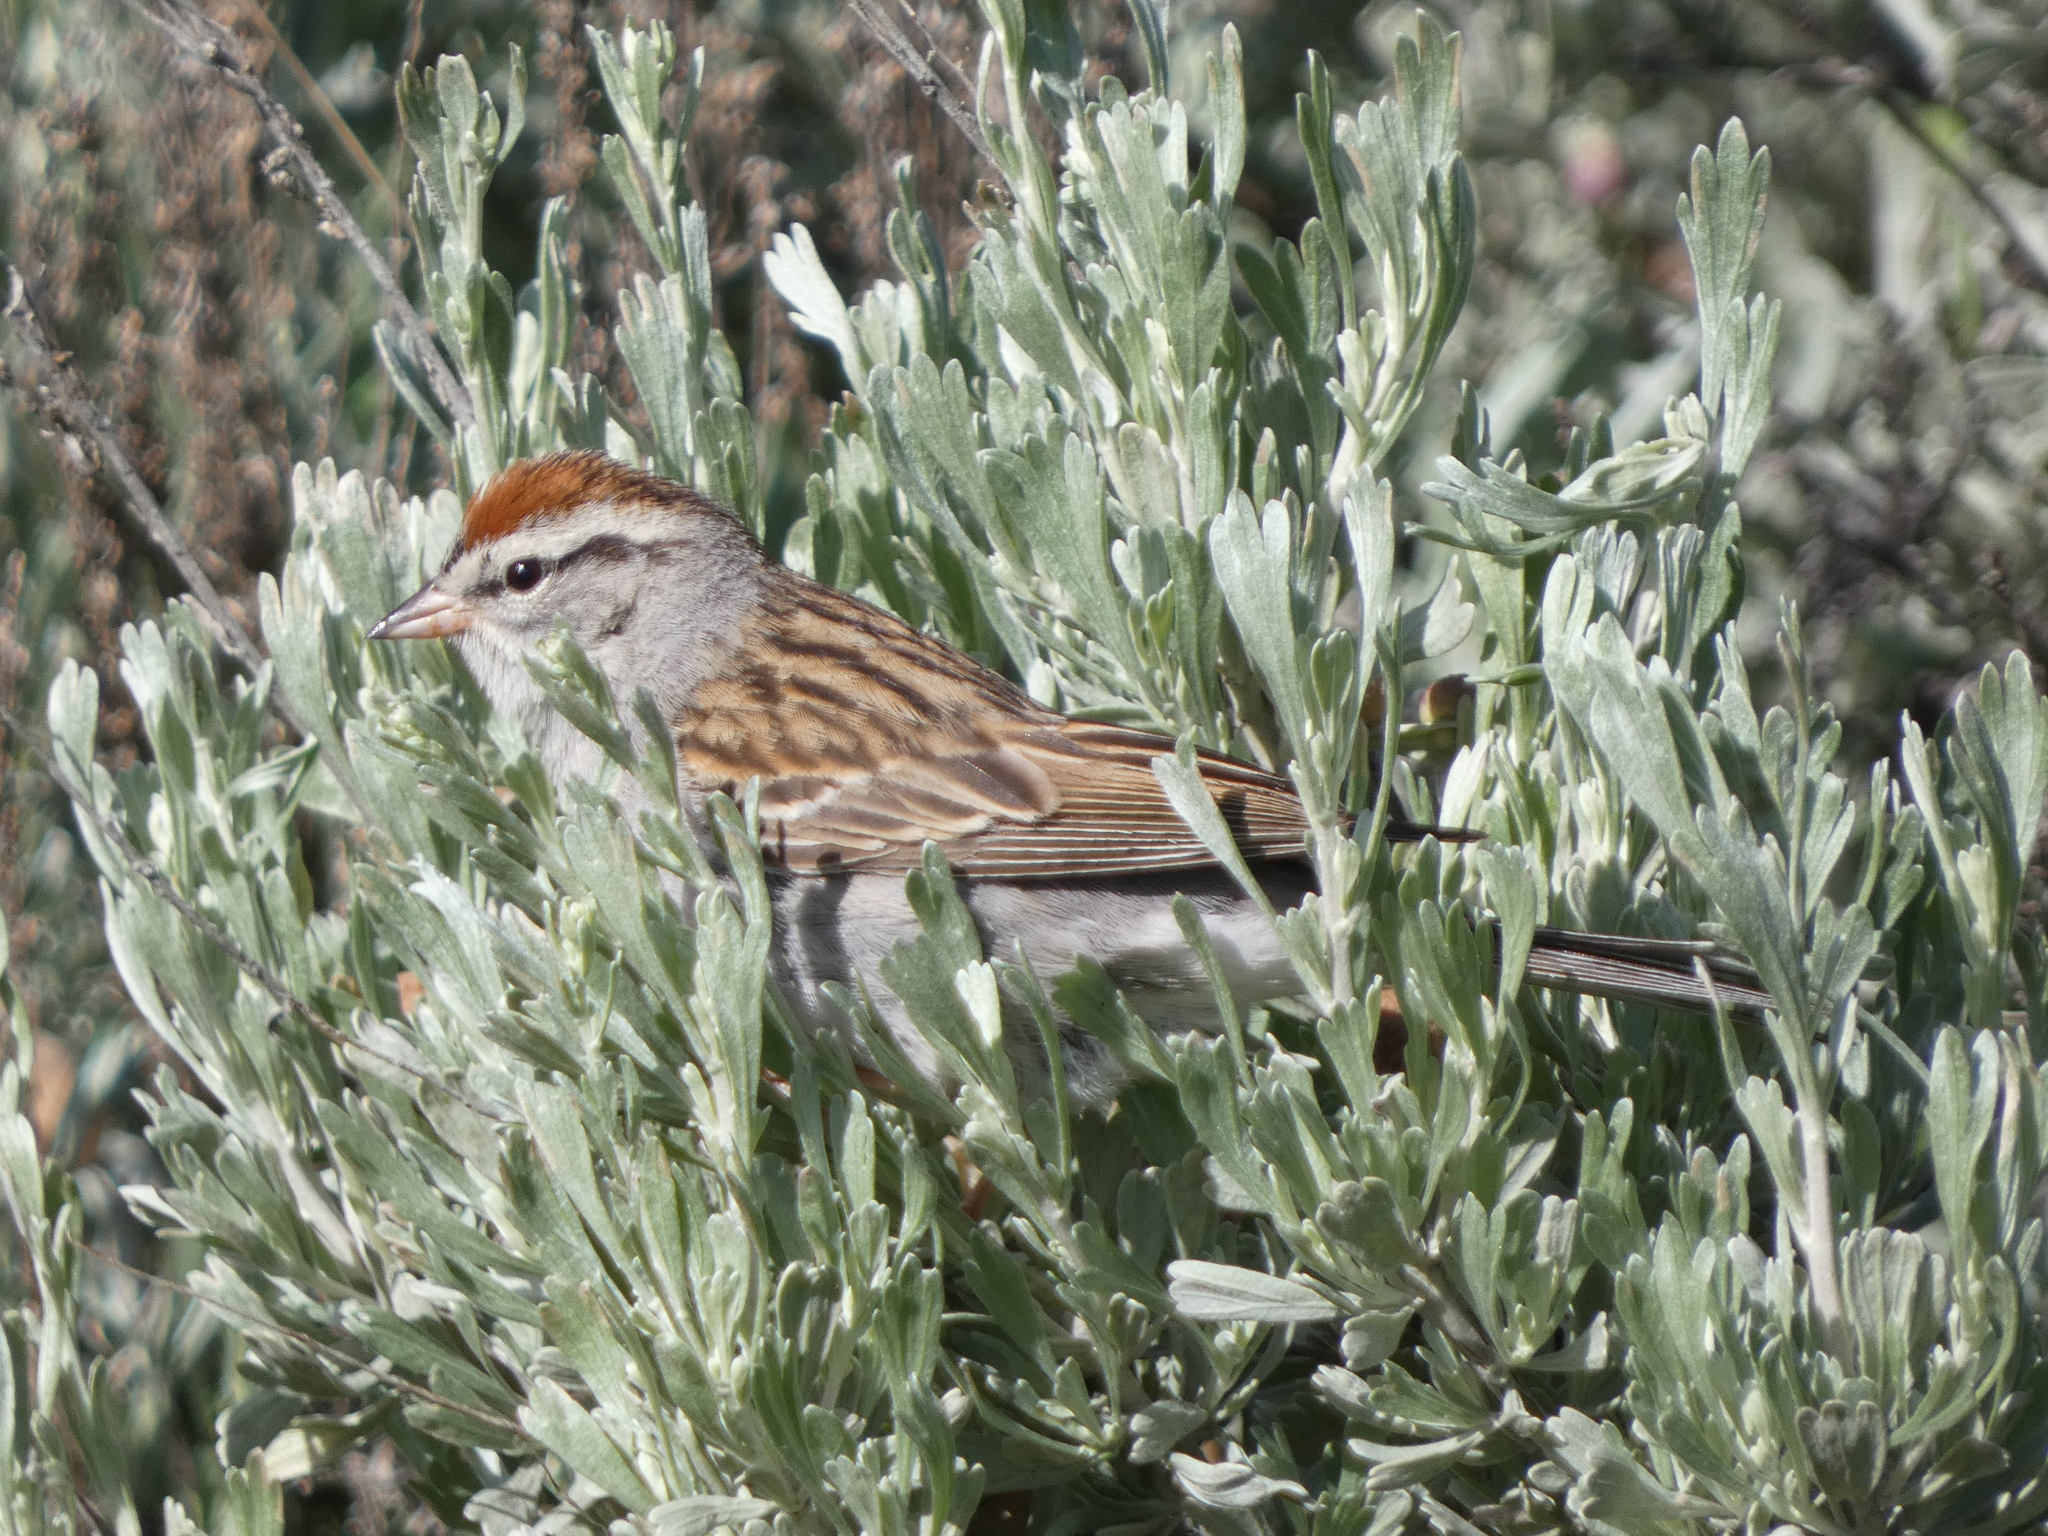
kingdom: Animalia
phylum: Chordata
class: Aves
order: Passeriformes
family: Passerellidae
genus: Spizella
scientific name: Spizella passerina
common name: Chipping sparrow
